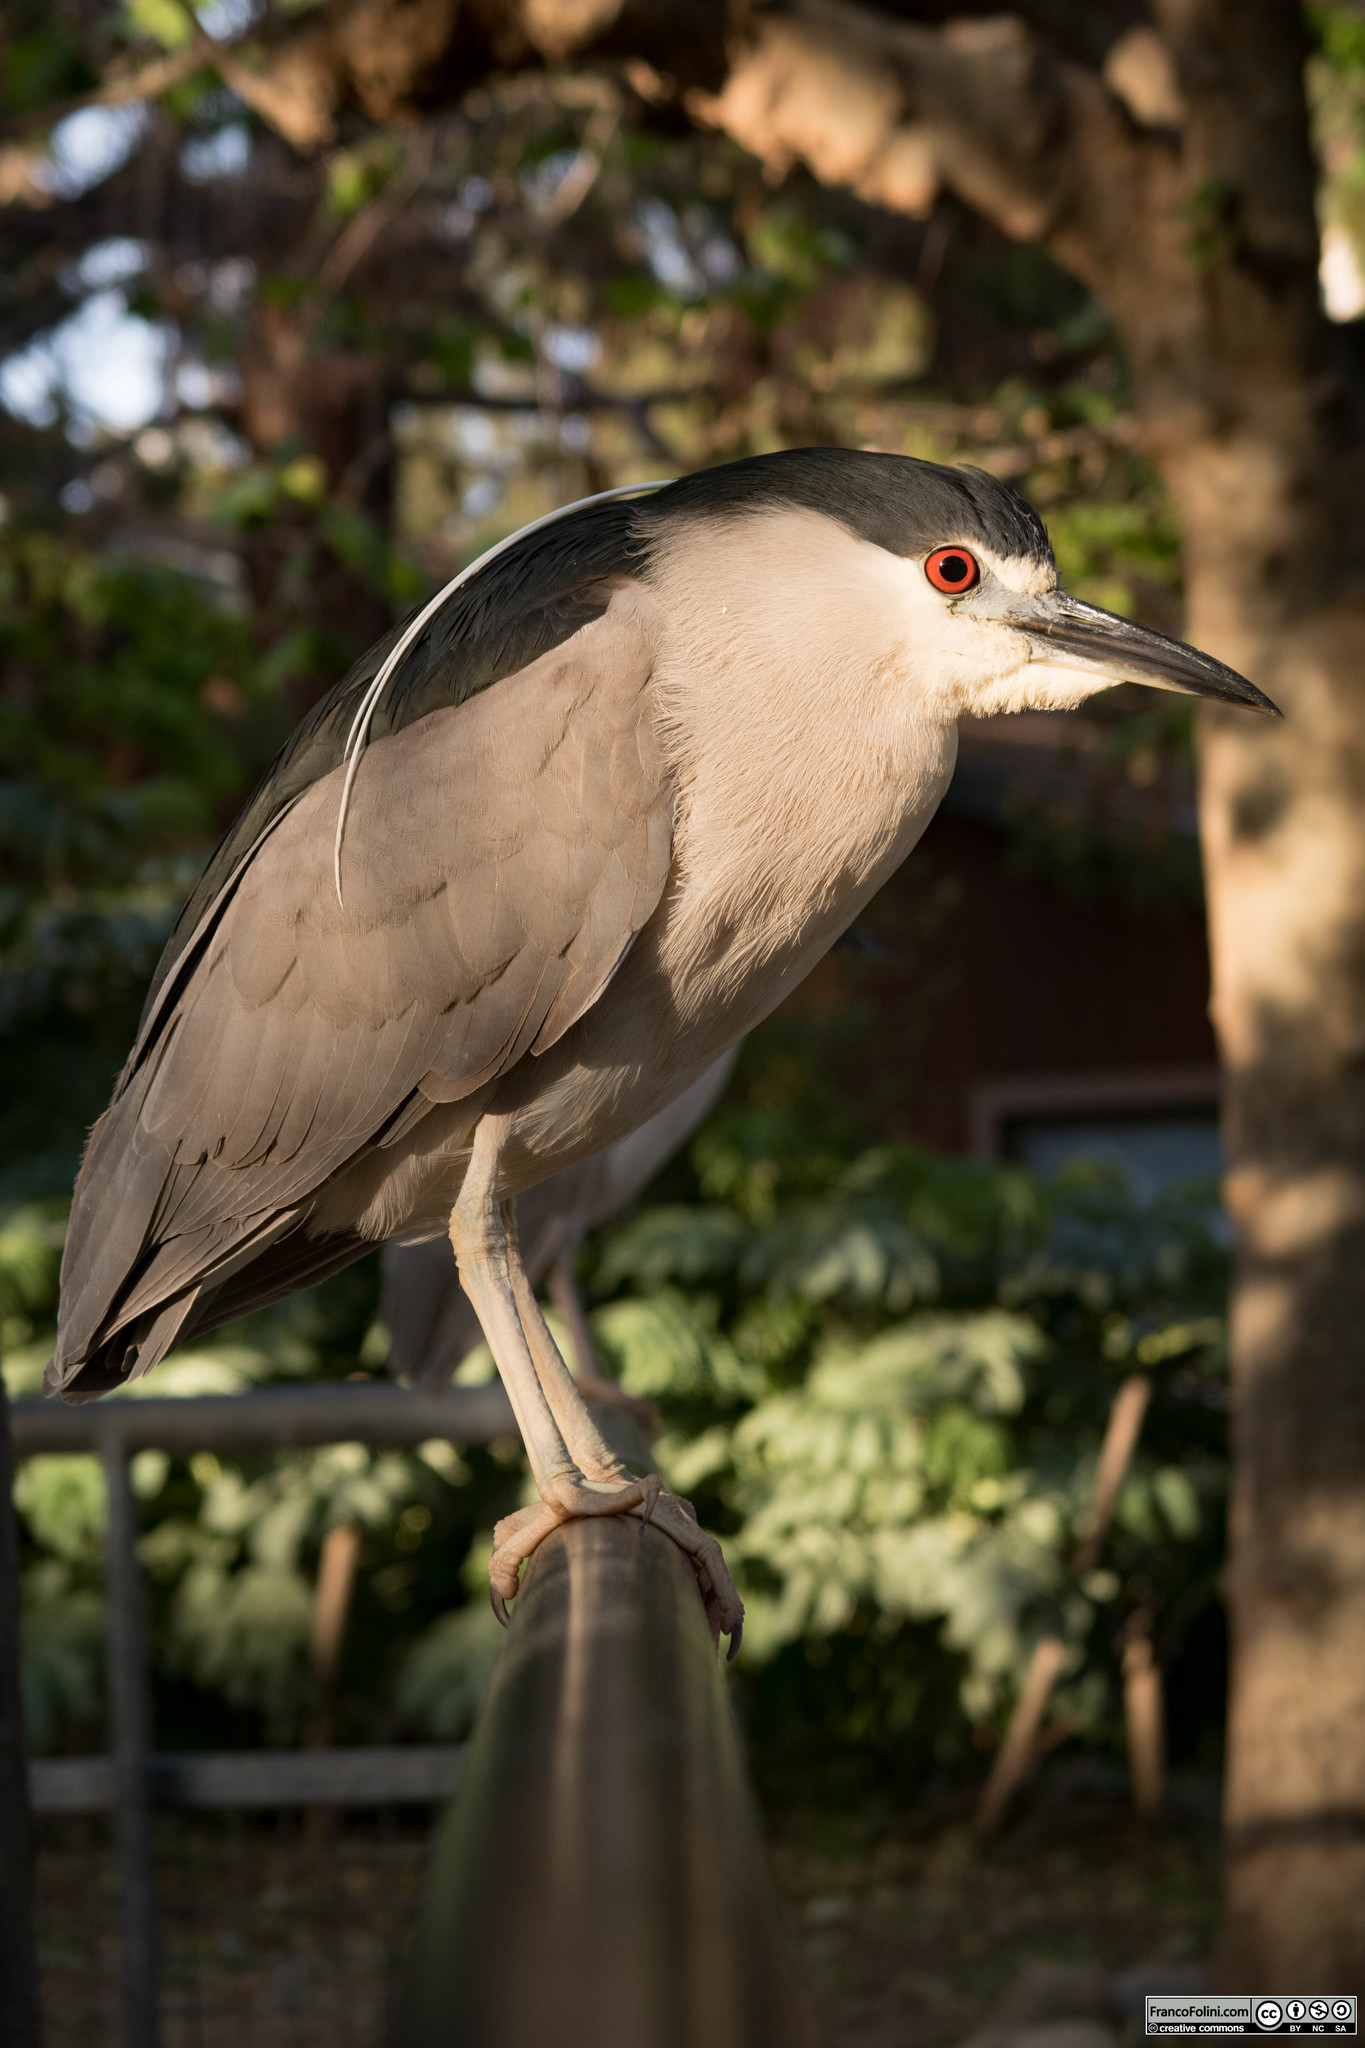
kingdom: Animalia
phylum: Chordata
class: Aves
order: Pelecaniformes
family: Ardeidae
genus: Nycticorax
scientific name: Nycticorax nycticorax
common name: Black-crowned night heron
